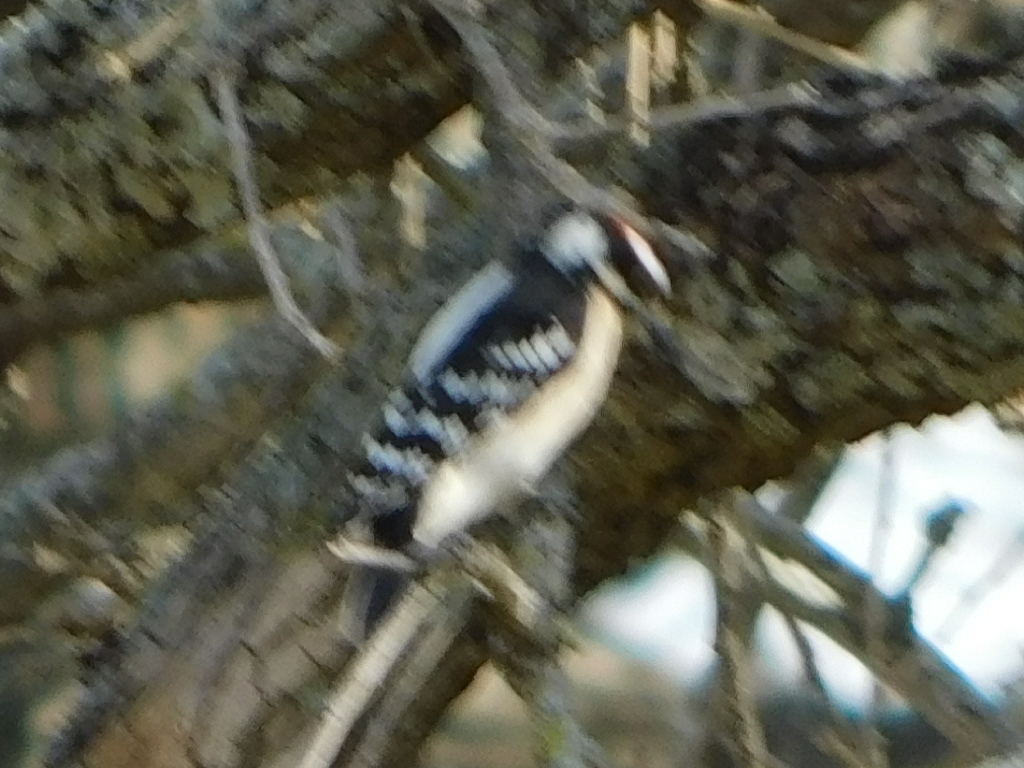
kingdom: Animalia
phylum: Chordata
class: Aves
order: Piciformes
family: Picidae
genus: Dryobates
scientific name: Dryobates pubescens
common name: Downy woodpecker
